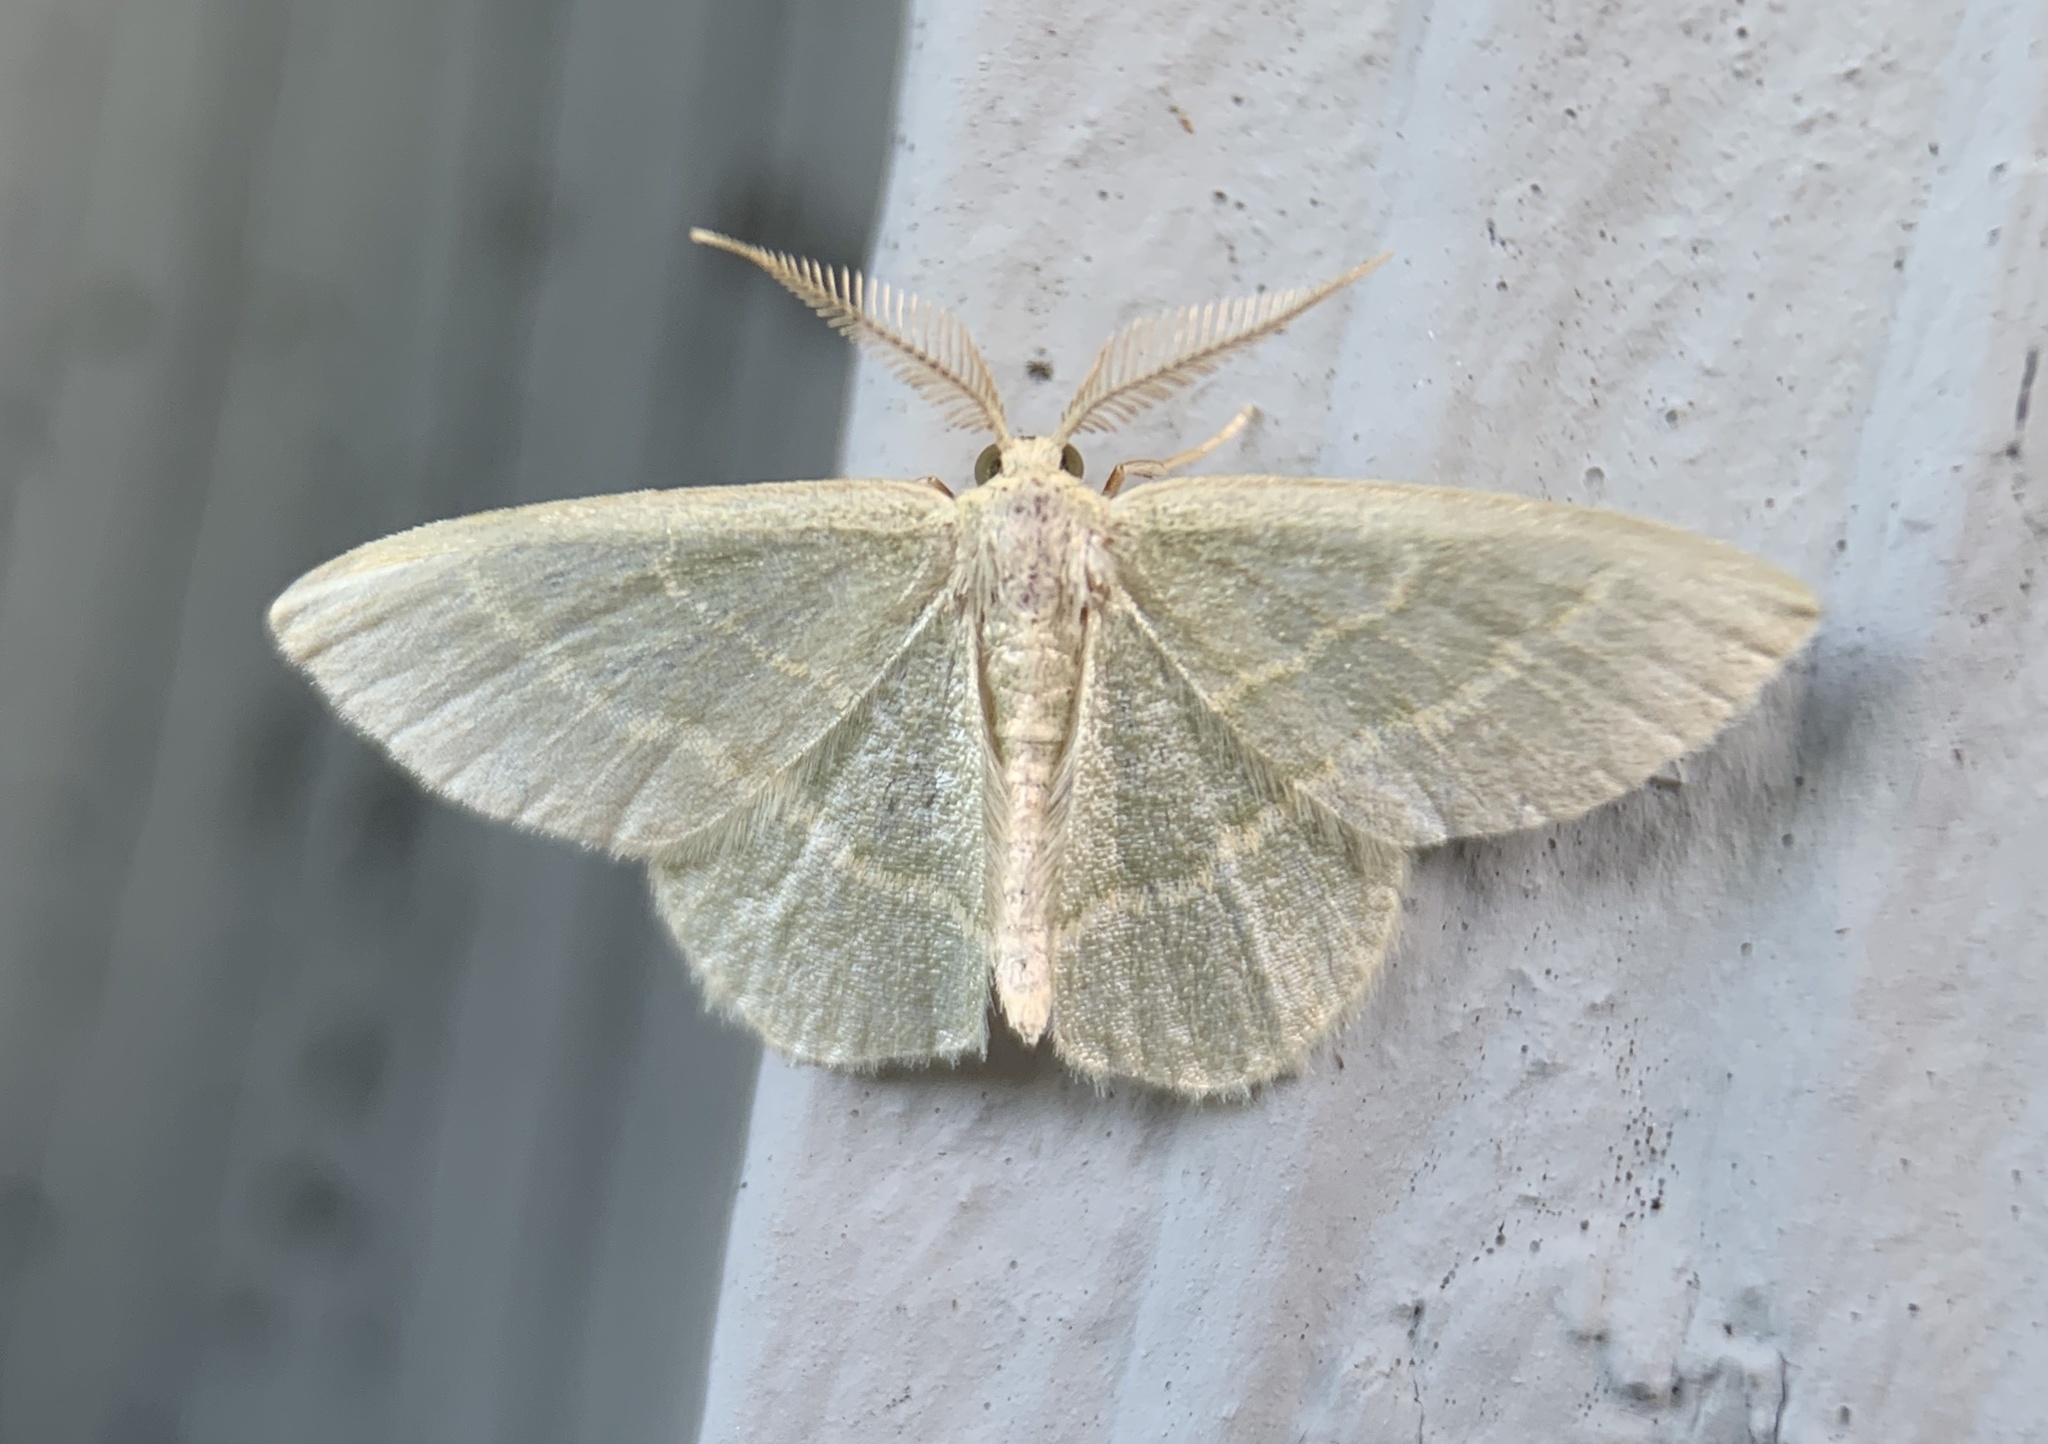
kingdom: Animalia
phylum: Arthropoda
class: Insecta
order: Lepidoptera
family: Geometridae
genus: Chlorochlamys
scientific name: Chlorochlamys chloroleucaria
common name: Blackberry looper
